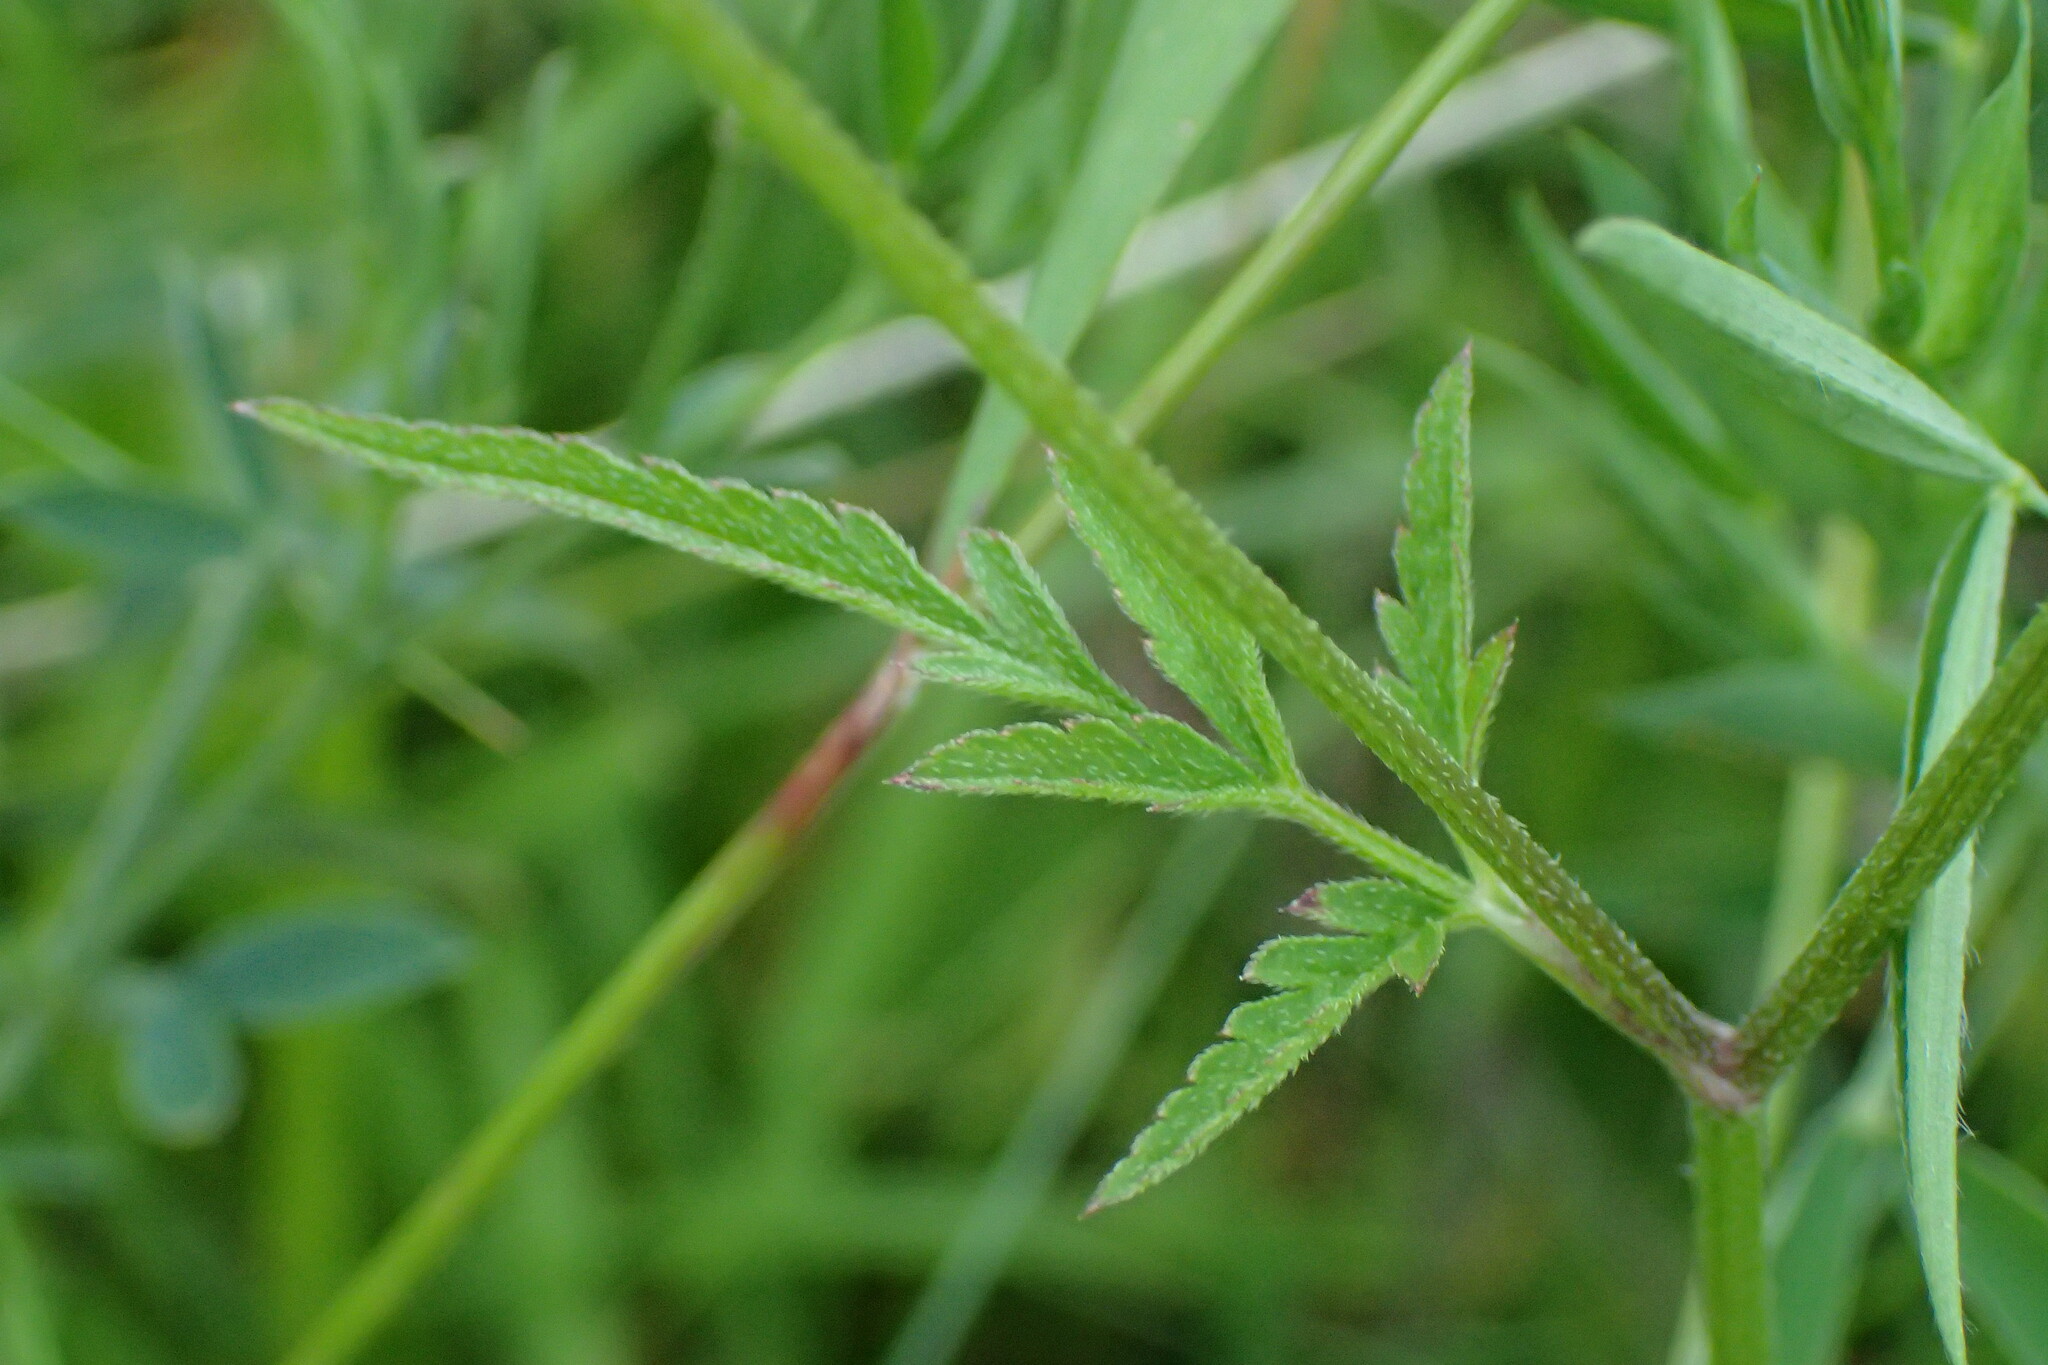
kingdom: Plantae
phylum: Tracheophyta
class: Magnoliopsida
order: Apiales
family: Apiaceae
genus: Torilis
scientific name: Torilis japonica
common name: Upright hedge-parsley
